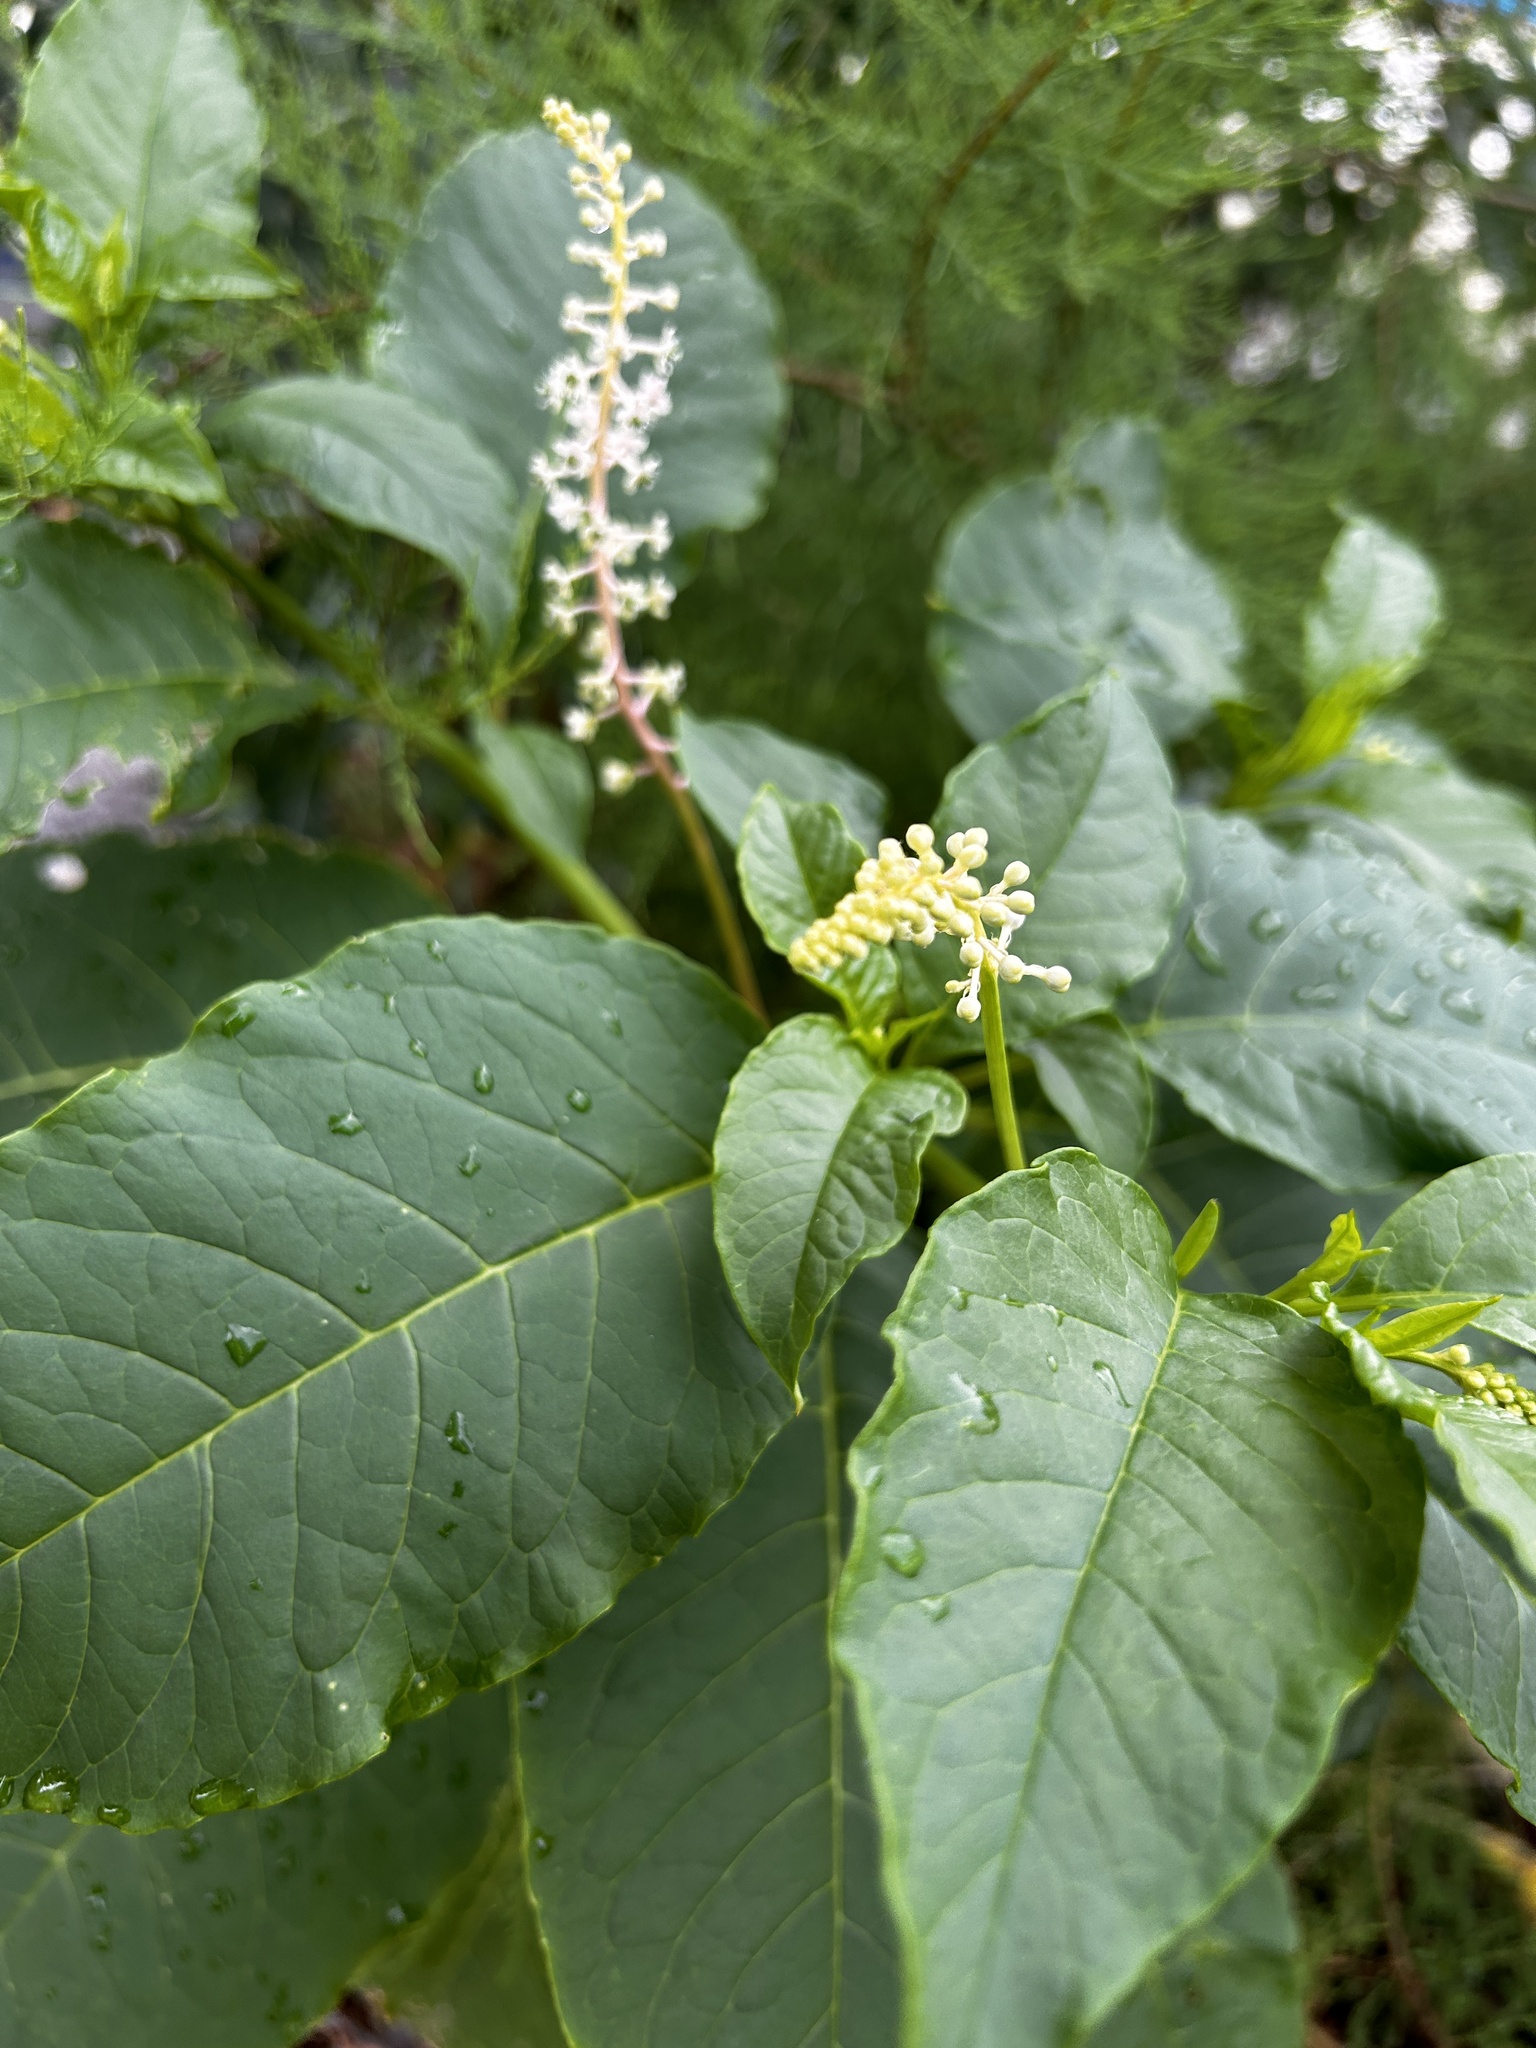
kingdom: Plantae
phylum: Tracheophyta
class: Magnoliopsida
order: Caryophyllales
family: Phytolaccaceae
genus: Phytolacca
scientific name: Phytolacca americana
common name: American pokeweed
